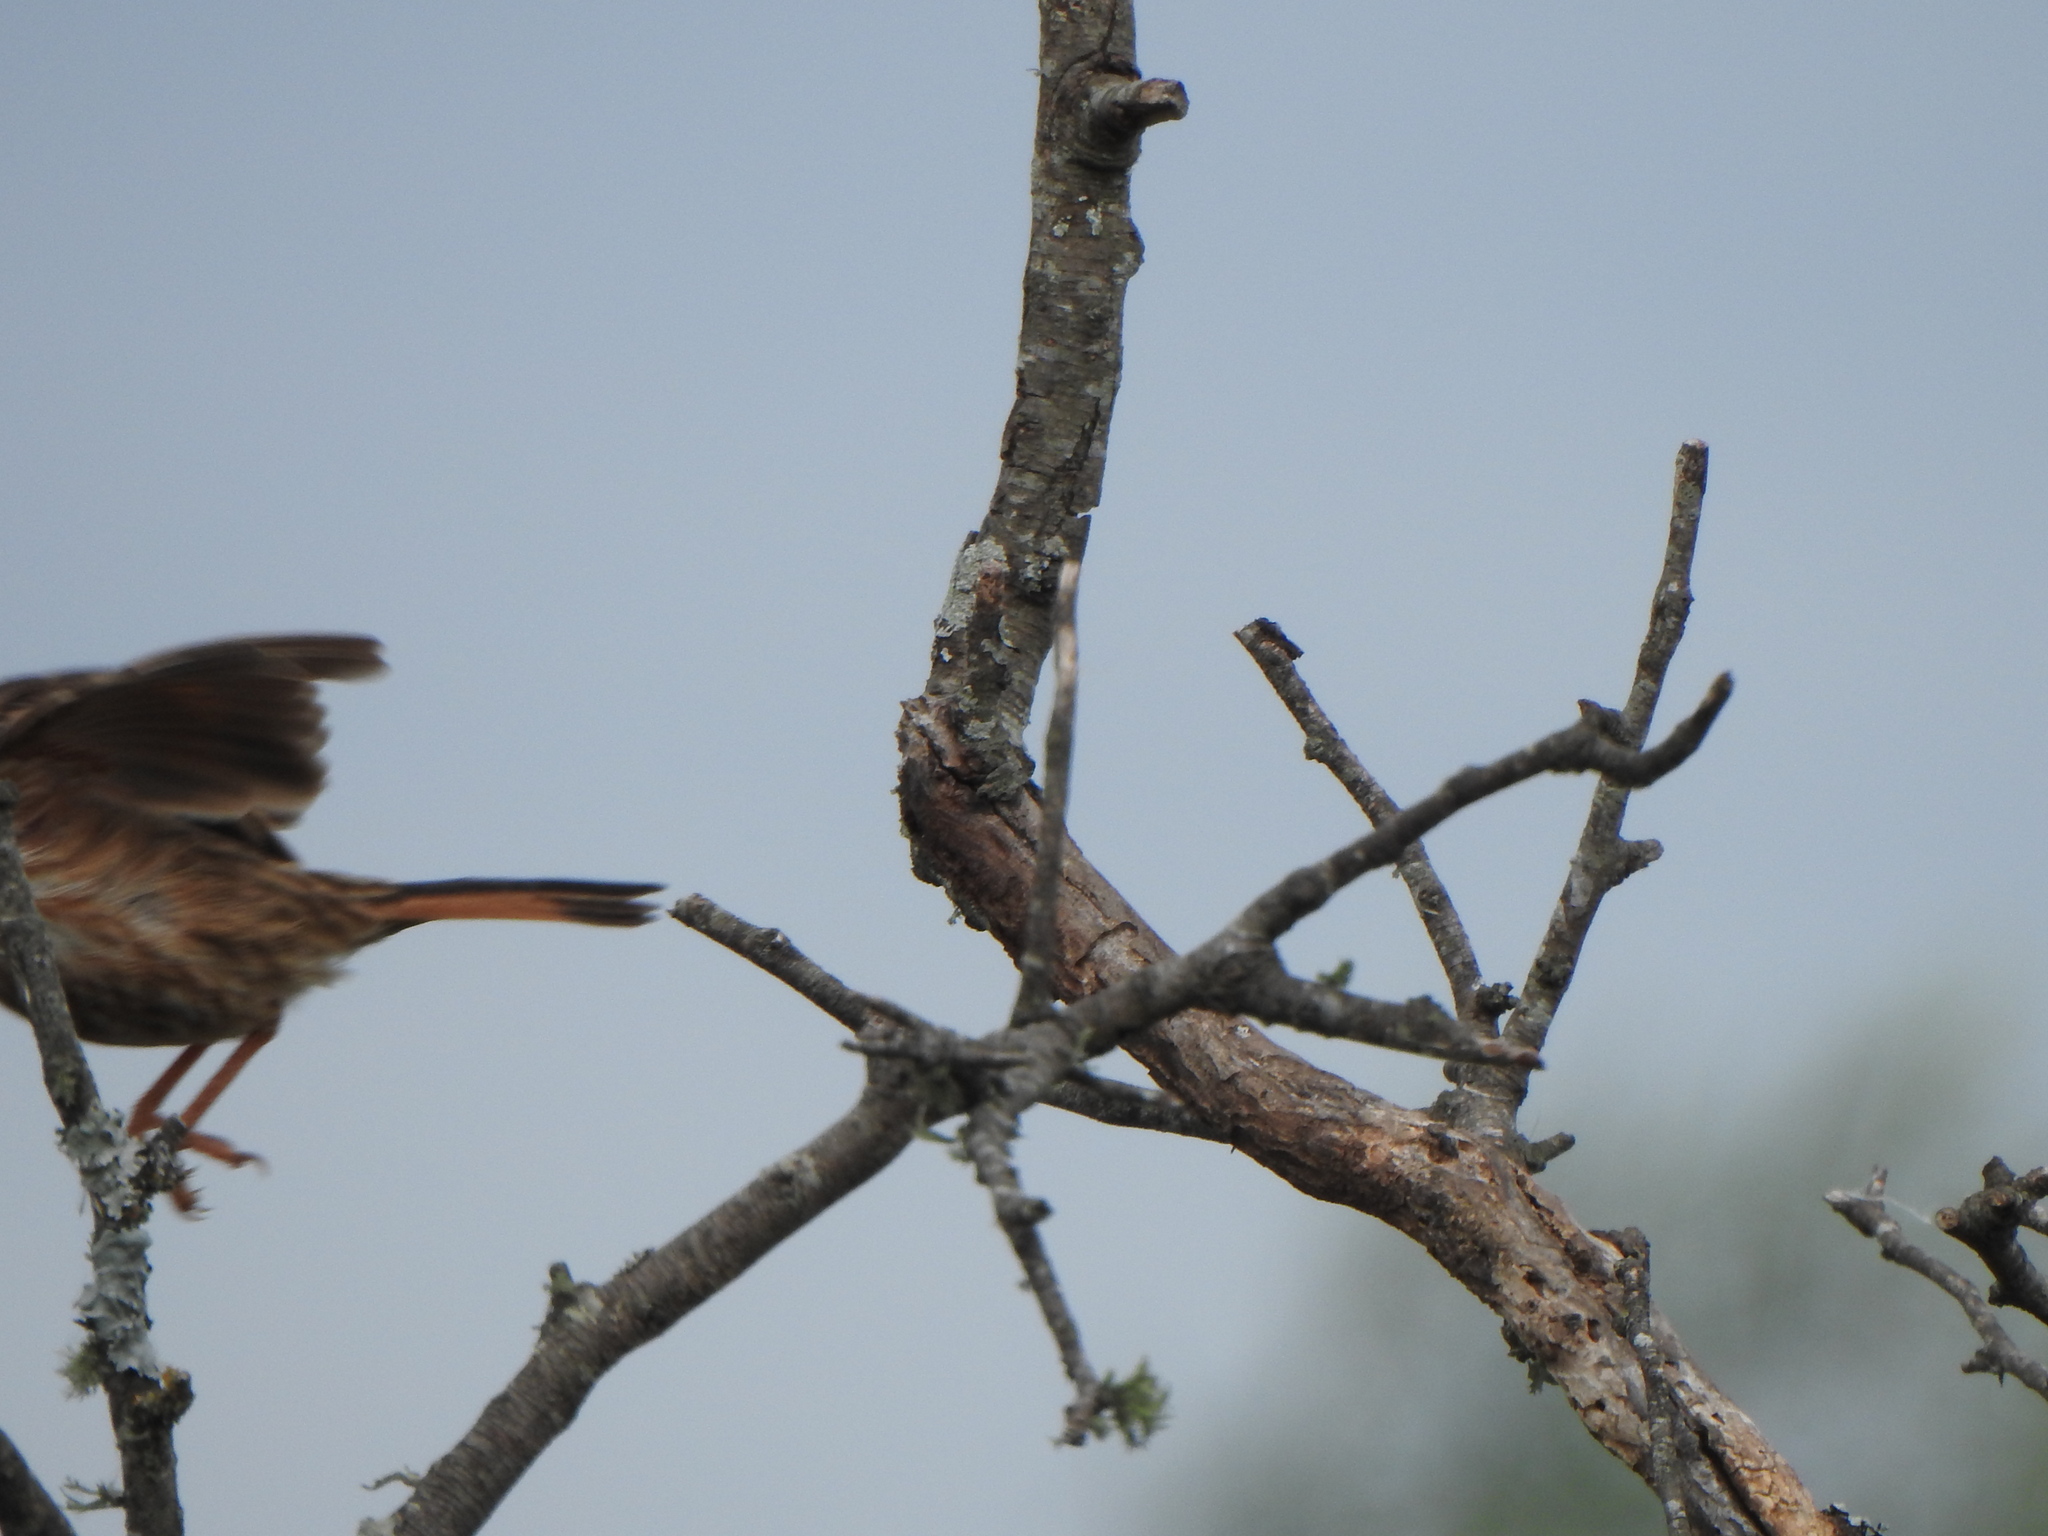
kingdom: Animalia
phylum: Chordata
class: Aves
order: Passeriformes
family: Furnariidae
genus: Coryphistera
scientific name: Coryphistera alaudina
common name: Lark-like brushrunner
